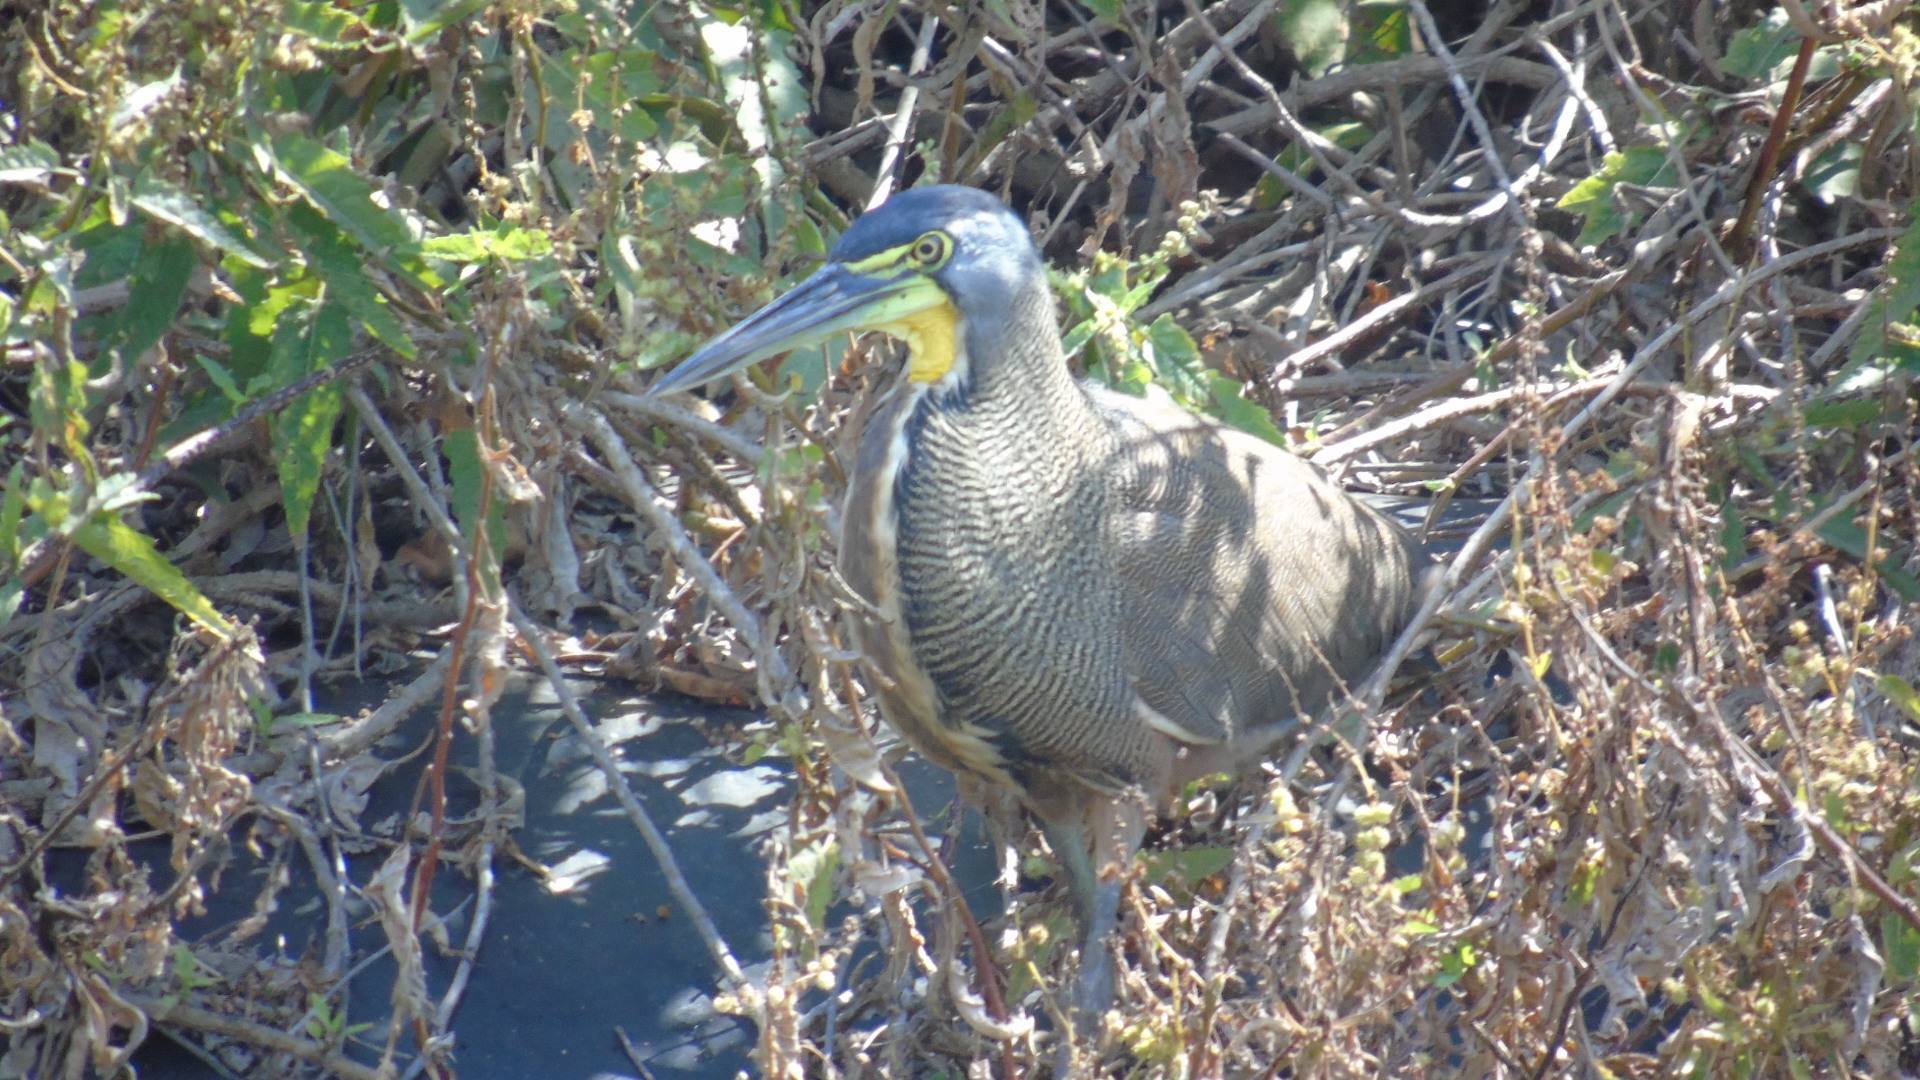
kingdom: Animalia
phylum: Chordata
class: Aves
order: Pelecaniformes
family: Ardeidae
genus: Tigrisoma
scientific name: Tigrisoma mexicanum
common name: Bare-throated tiger-heron
